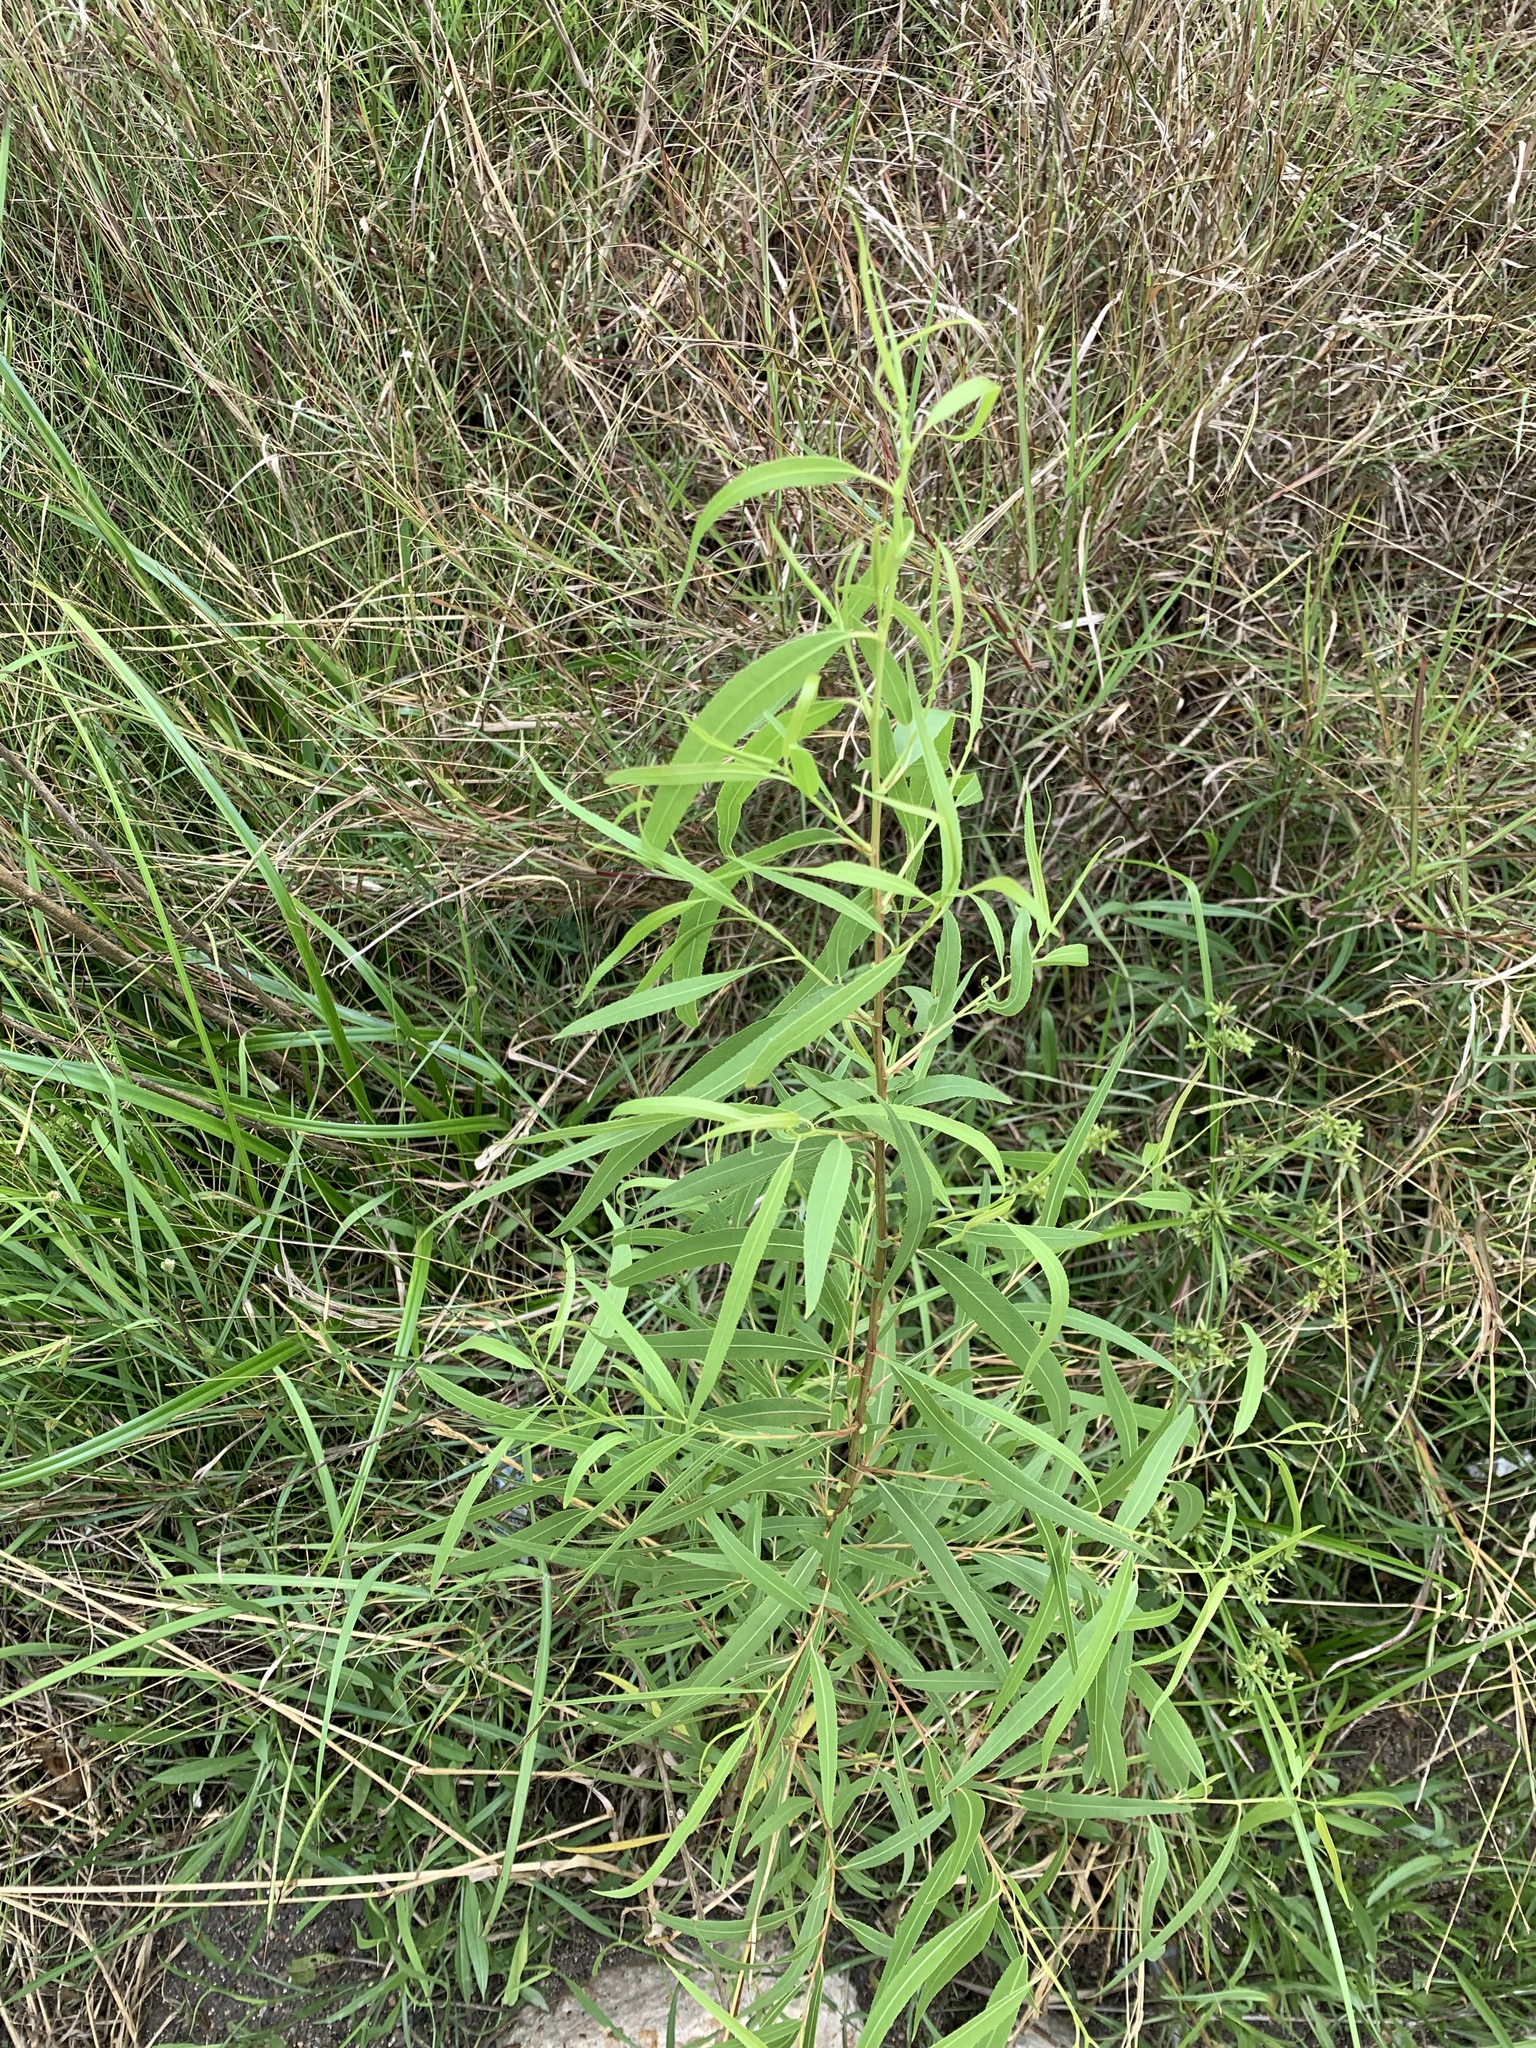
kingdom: Plantae
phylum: Tracheophyta
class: Magnoliopsida
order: Malpighiales
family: Salicaceae
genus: Salix
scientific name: Salix nigra
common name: Black willow
